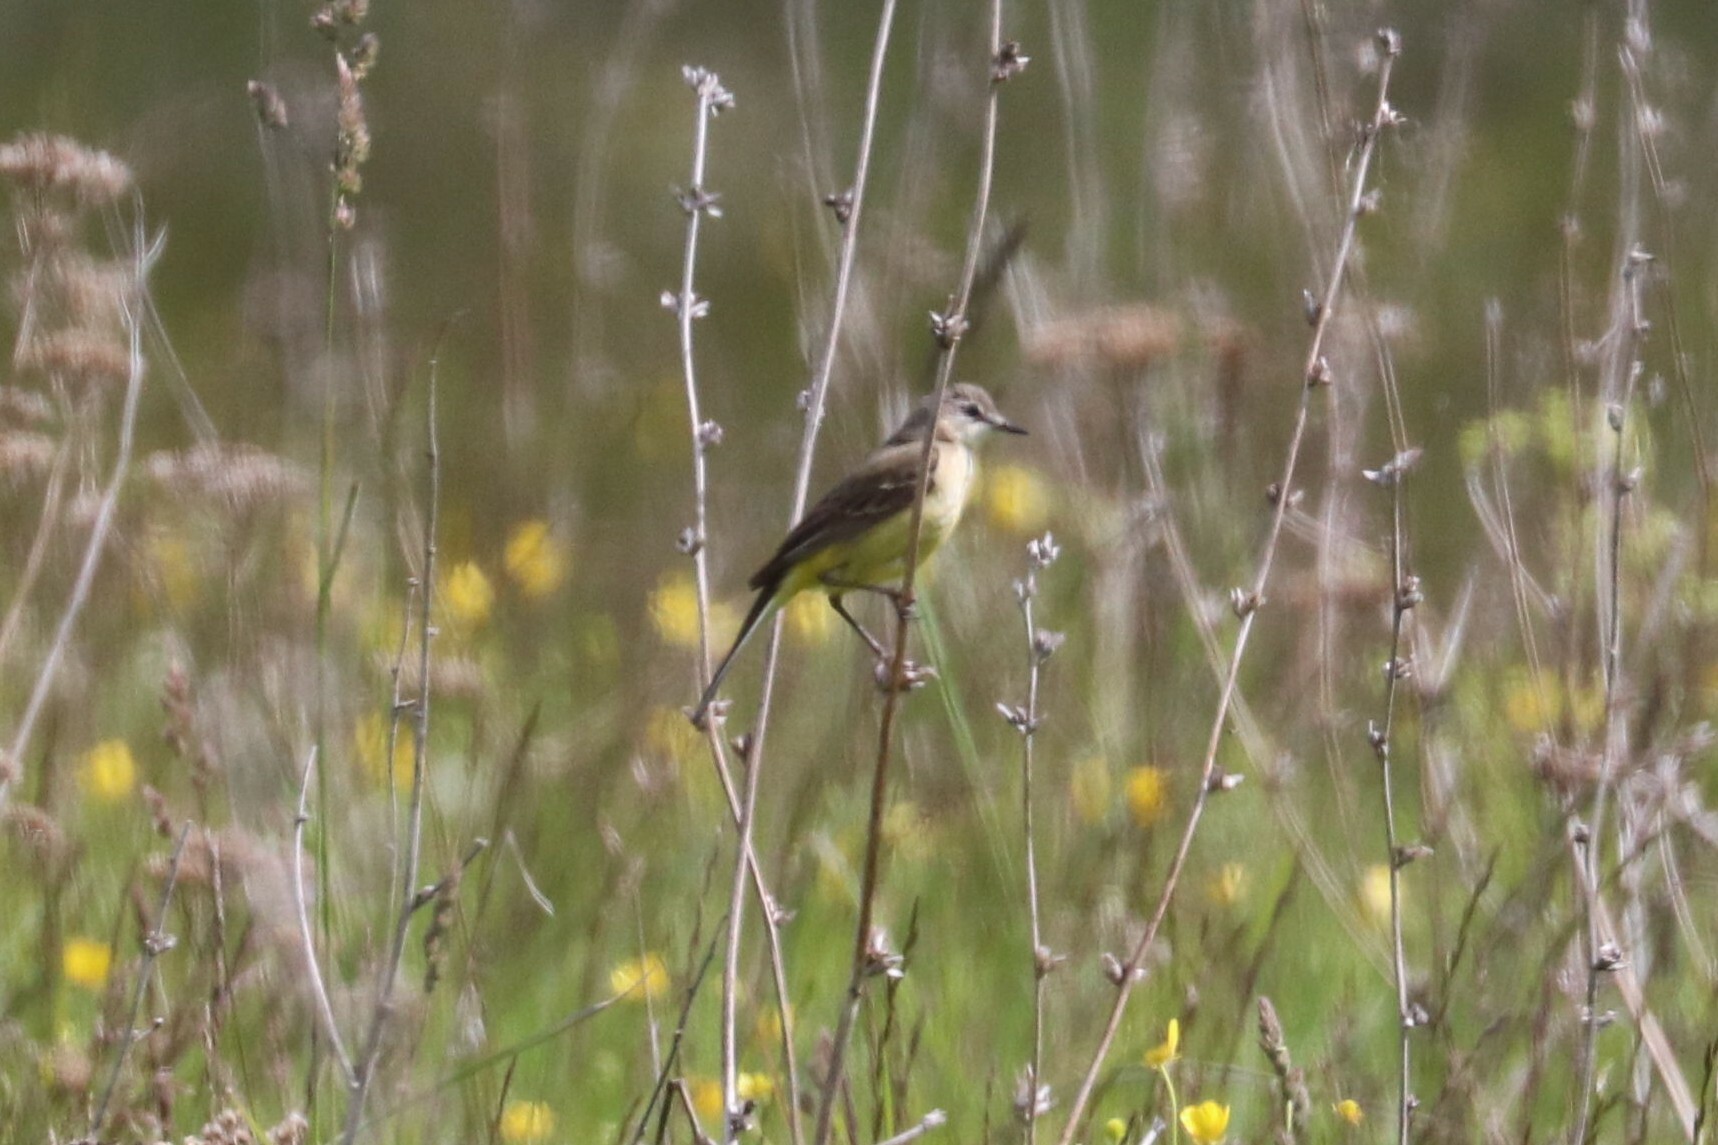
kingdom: Animalia
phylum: Chordata
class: Aves
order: Passeriformes
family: Motacillidae
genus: Motacilla
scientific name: Motacilla flava
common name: Western yellow wagtail
